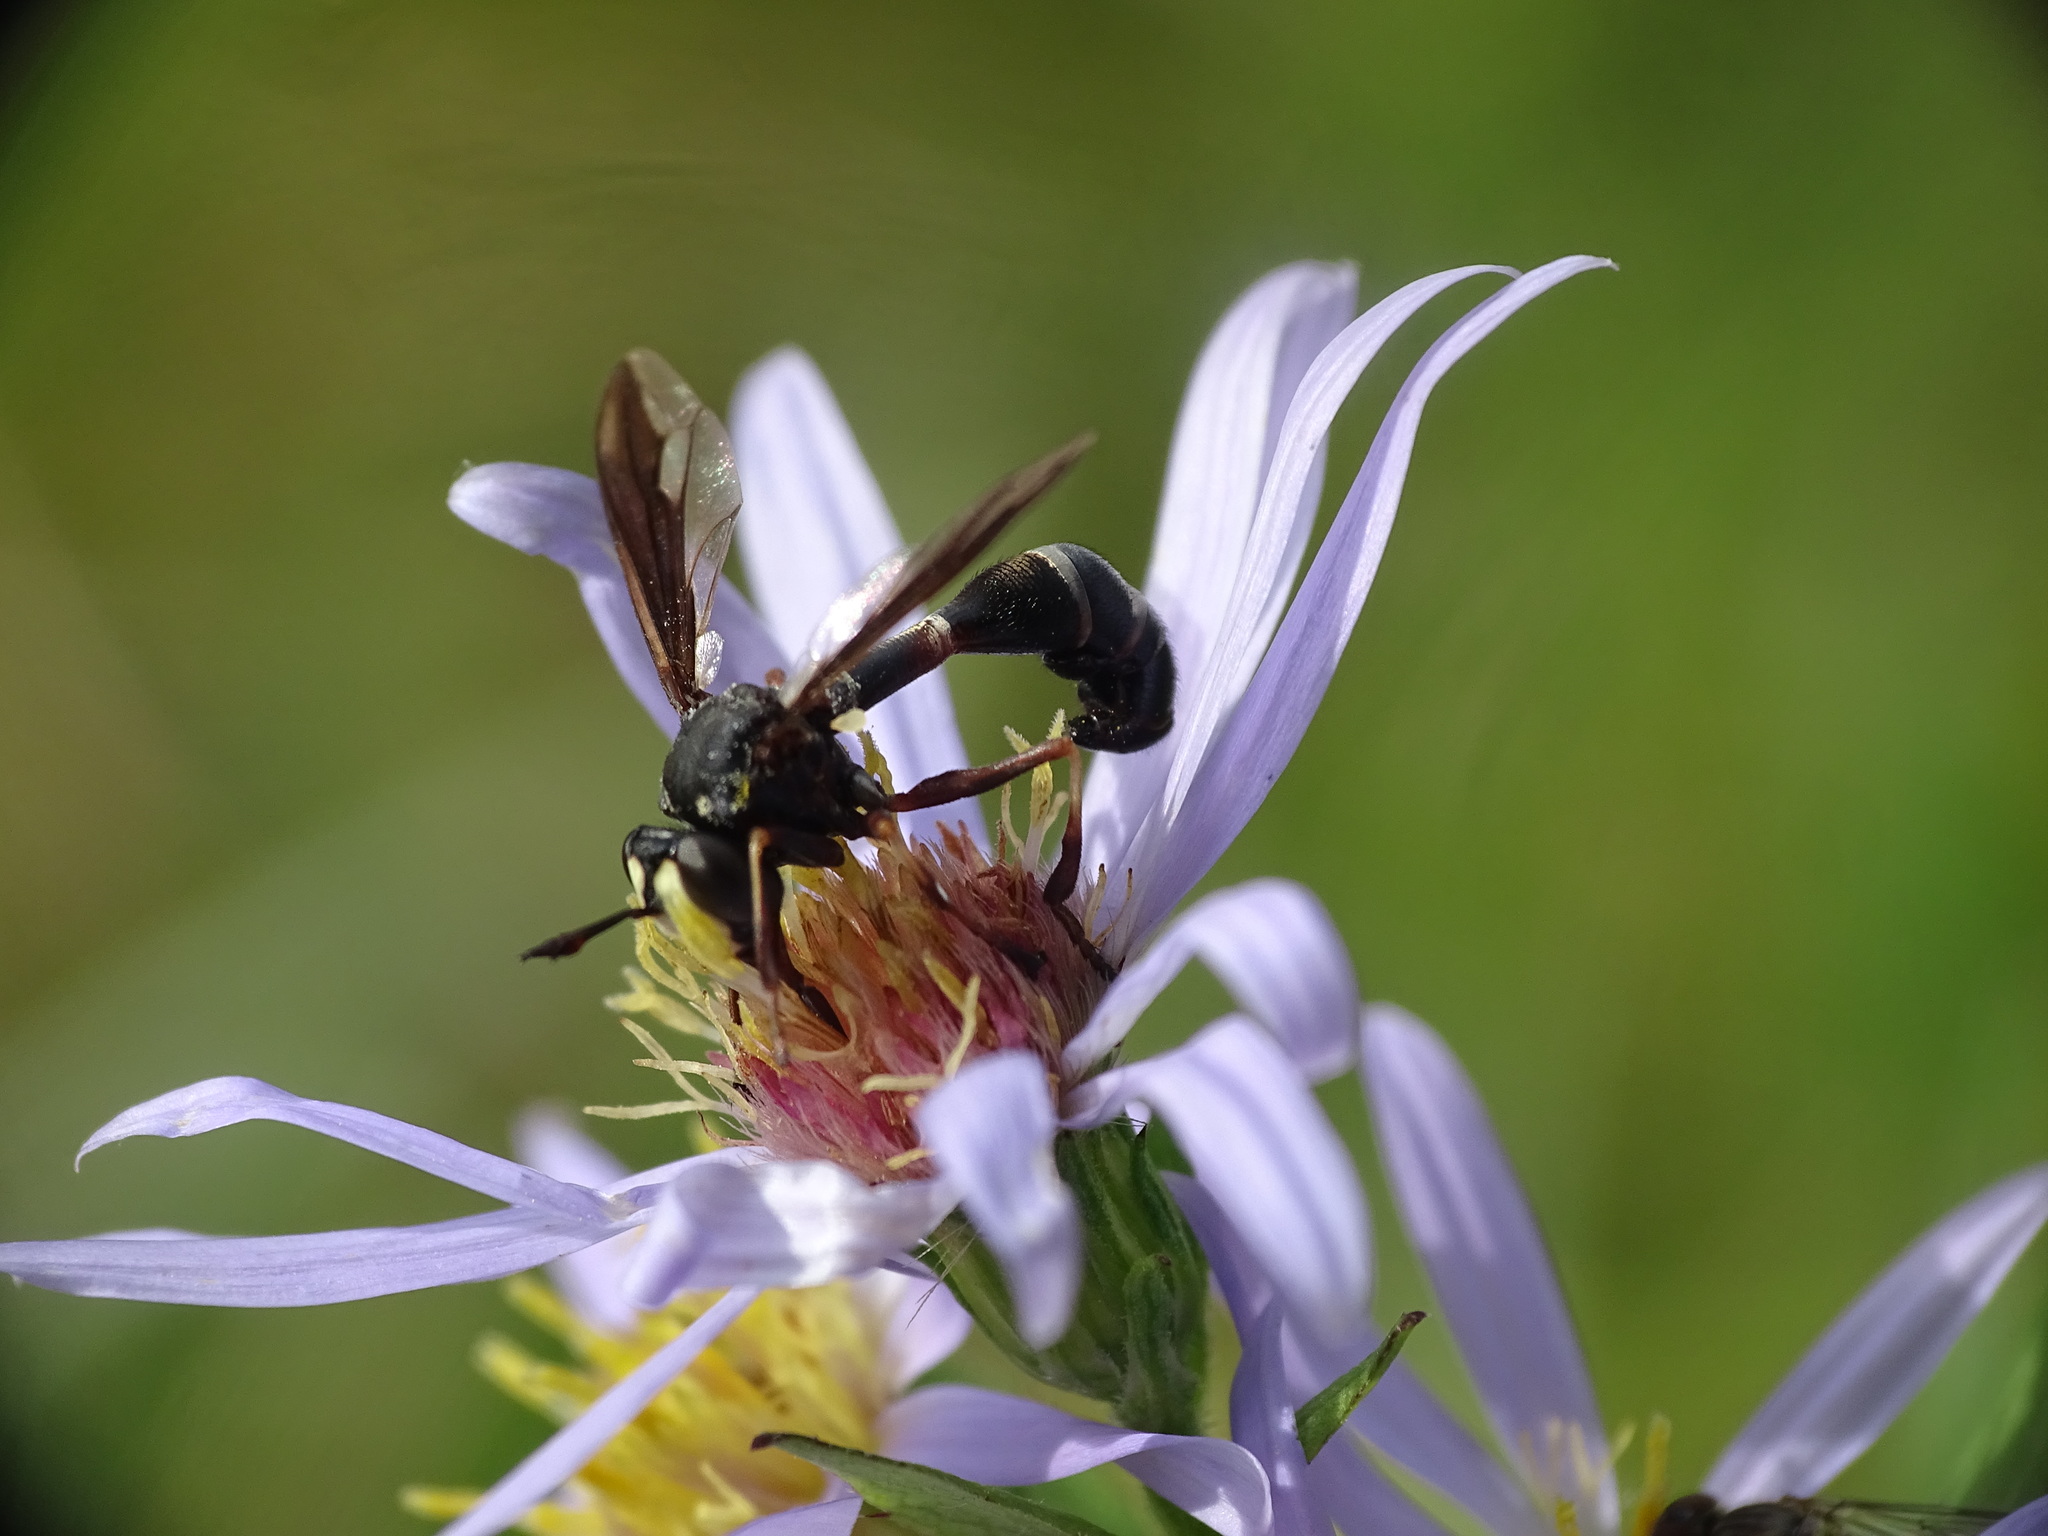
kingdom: Animalia
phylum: Arthropoda
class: Insecta
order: Diptera
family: Conopidae
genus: Physocephala
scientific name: Physocephala furcillata
